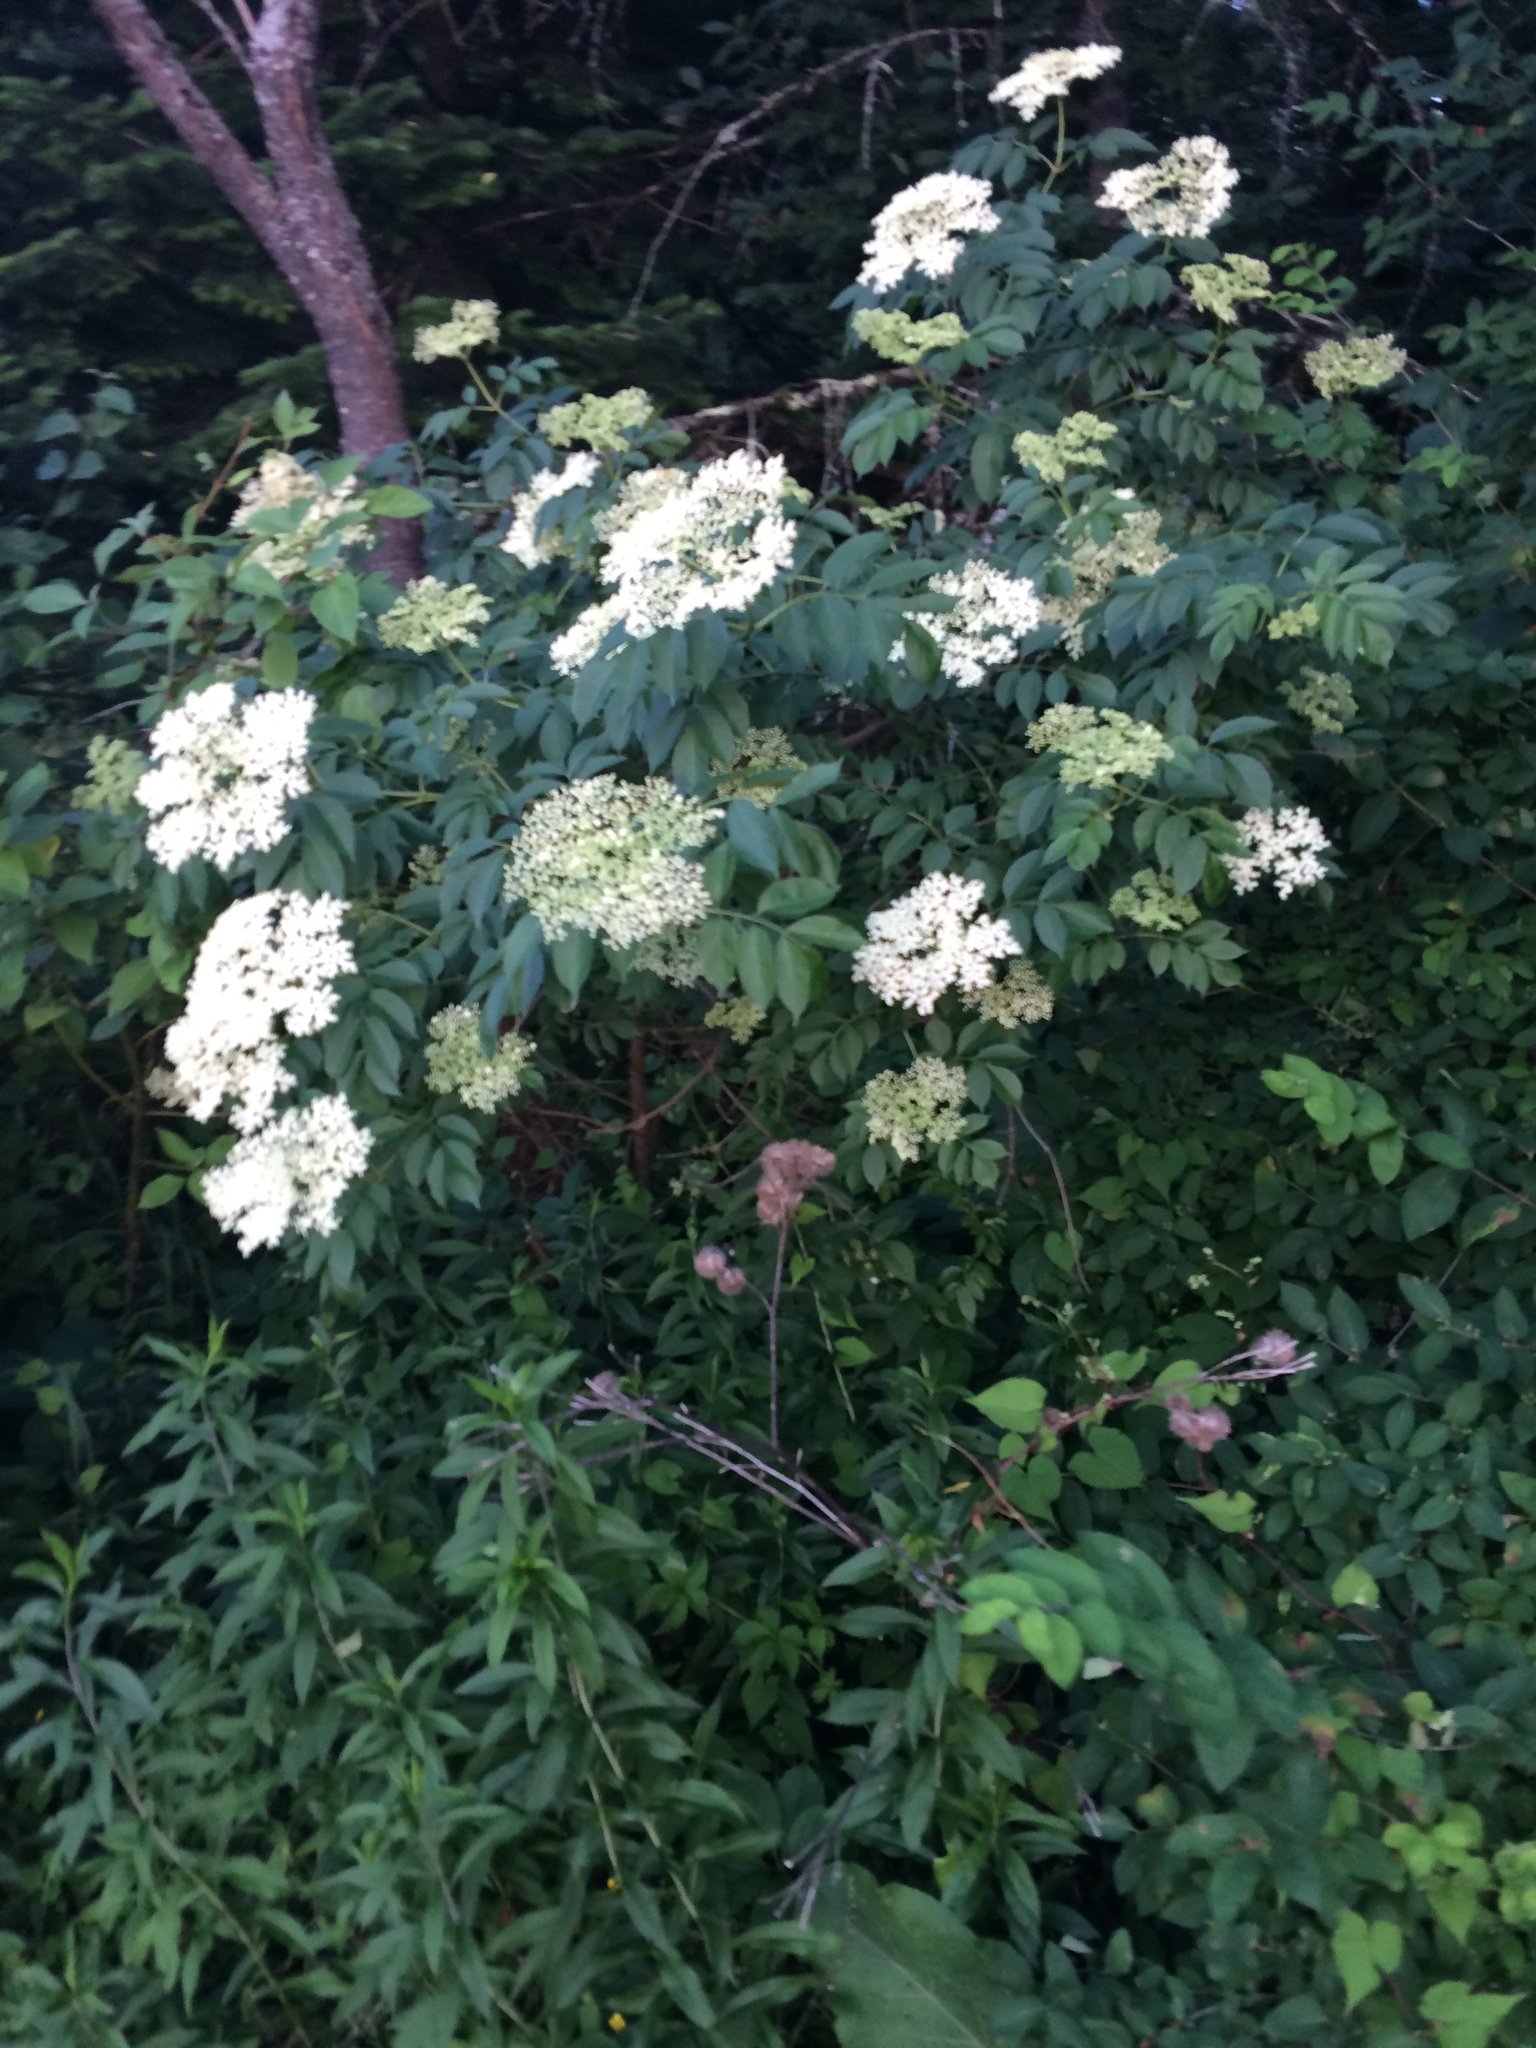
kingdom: Plantae
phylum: Tracheophyta
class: Magnoliopsida
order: Dipsacales
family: Viburnaceae
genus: Sambucus
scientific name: Sambucus canadensis
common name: American elder
